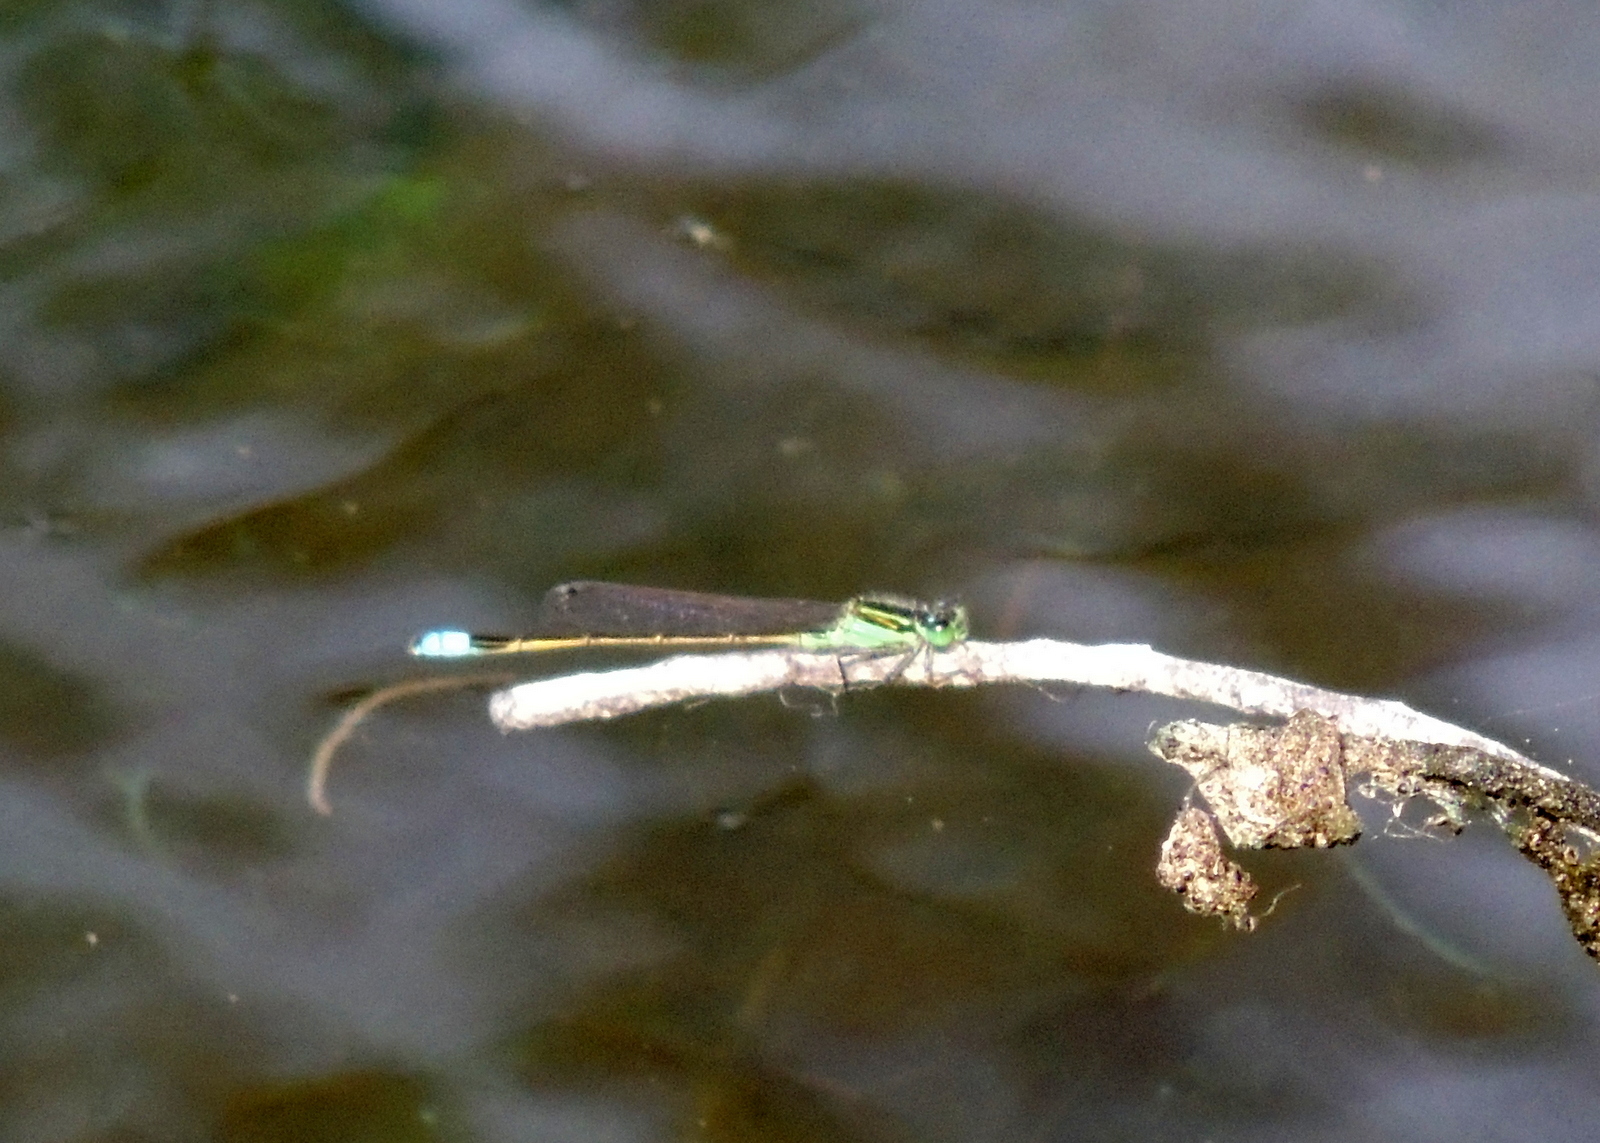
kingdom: Animalia
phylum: Arthropoda
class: Insecta
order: Odonata
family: Coenagrionidae
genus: Ischnura
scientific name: Ischnura ramburii
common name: Rambur's forktail
